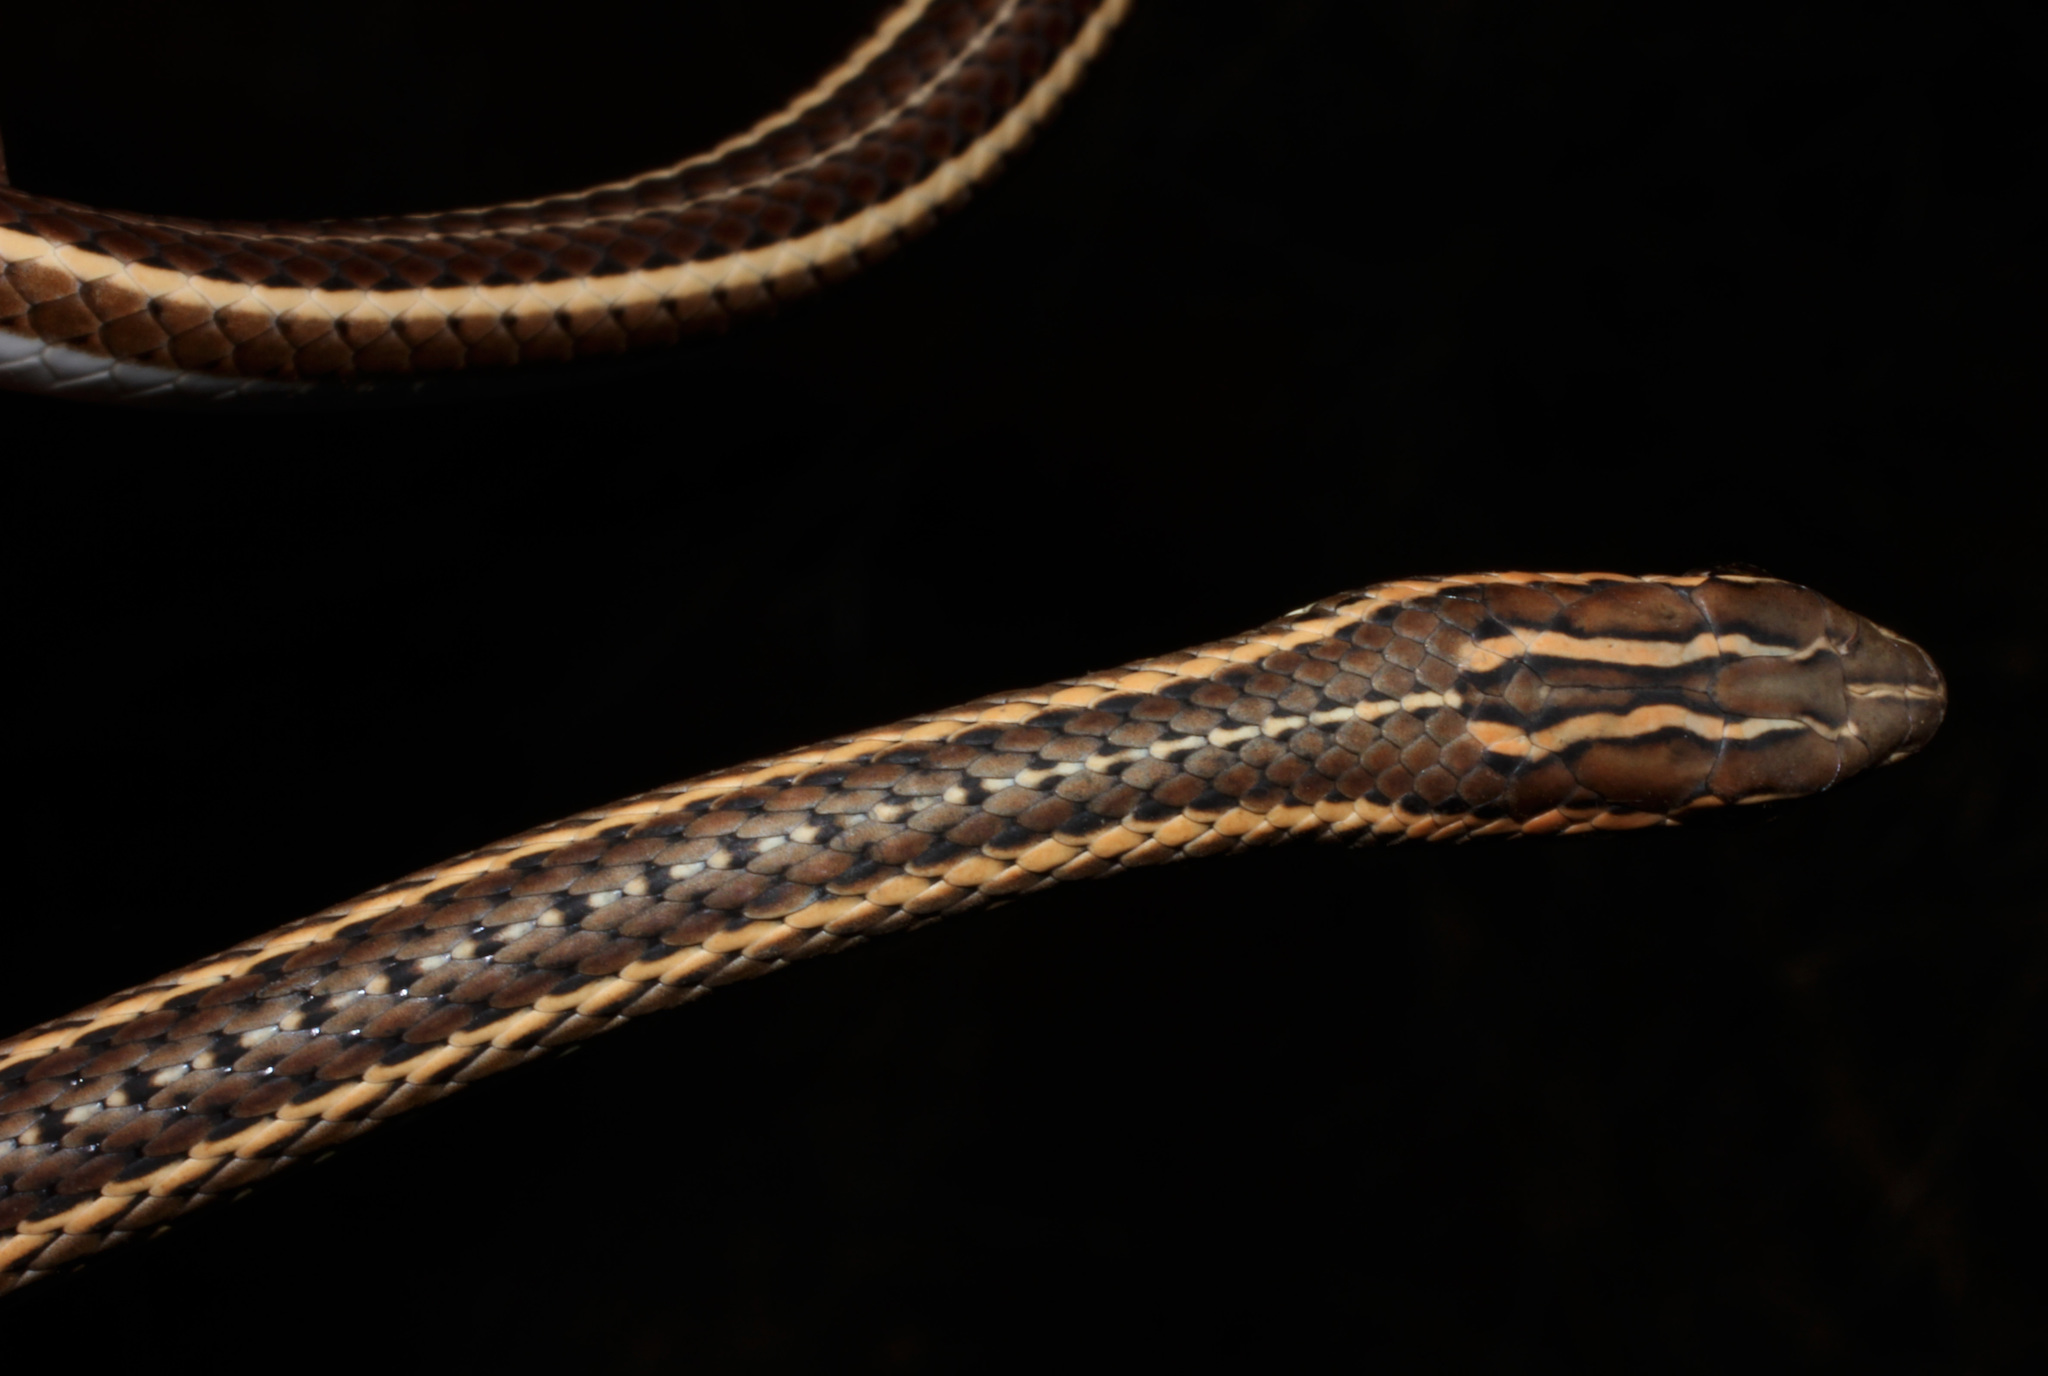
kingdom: Animalia
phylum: Chordata
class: Squamata
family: Psammophiidae
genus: Psammophis
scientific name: Psammophis leightoni
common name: Cape sand snake
